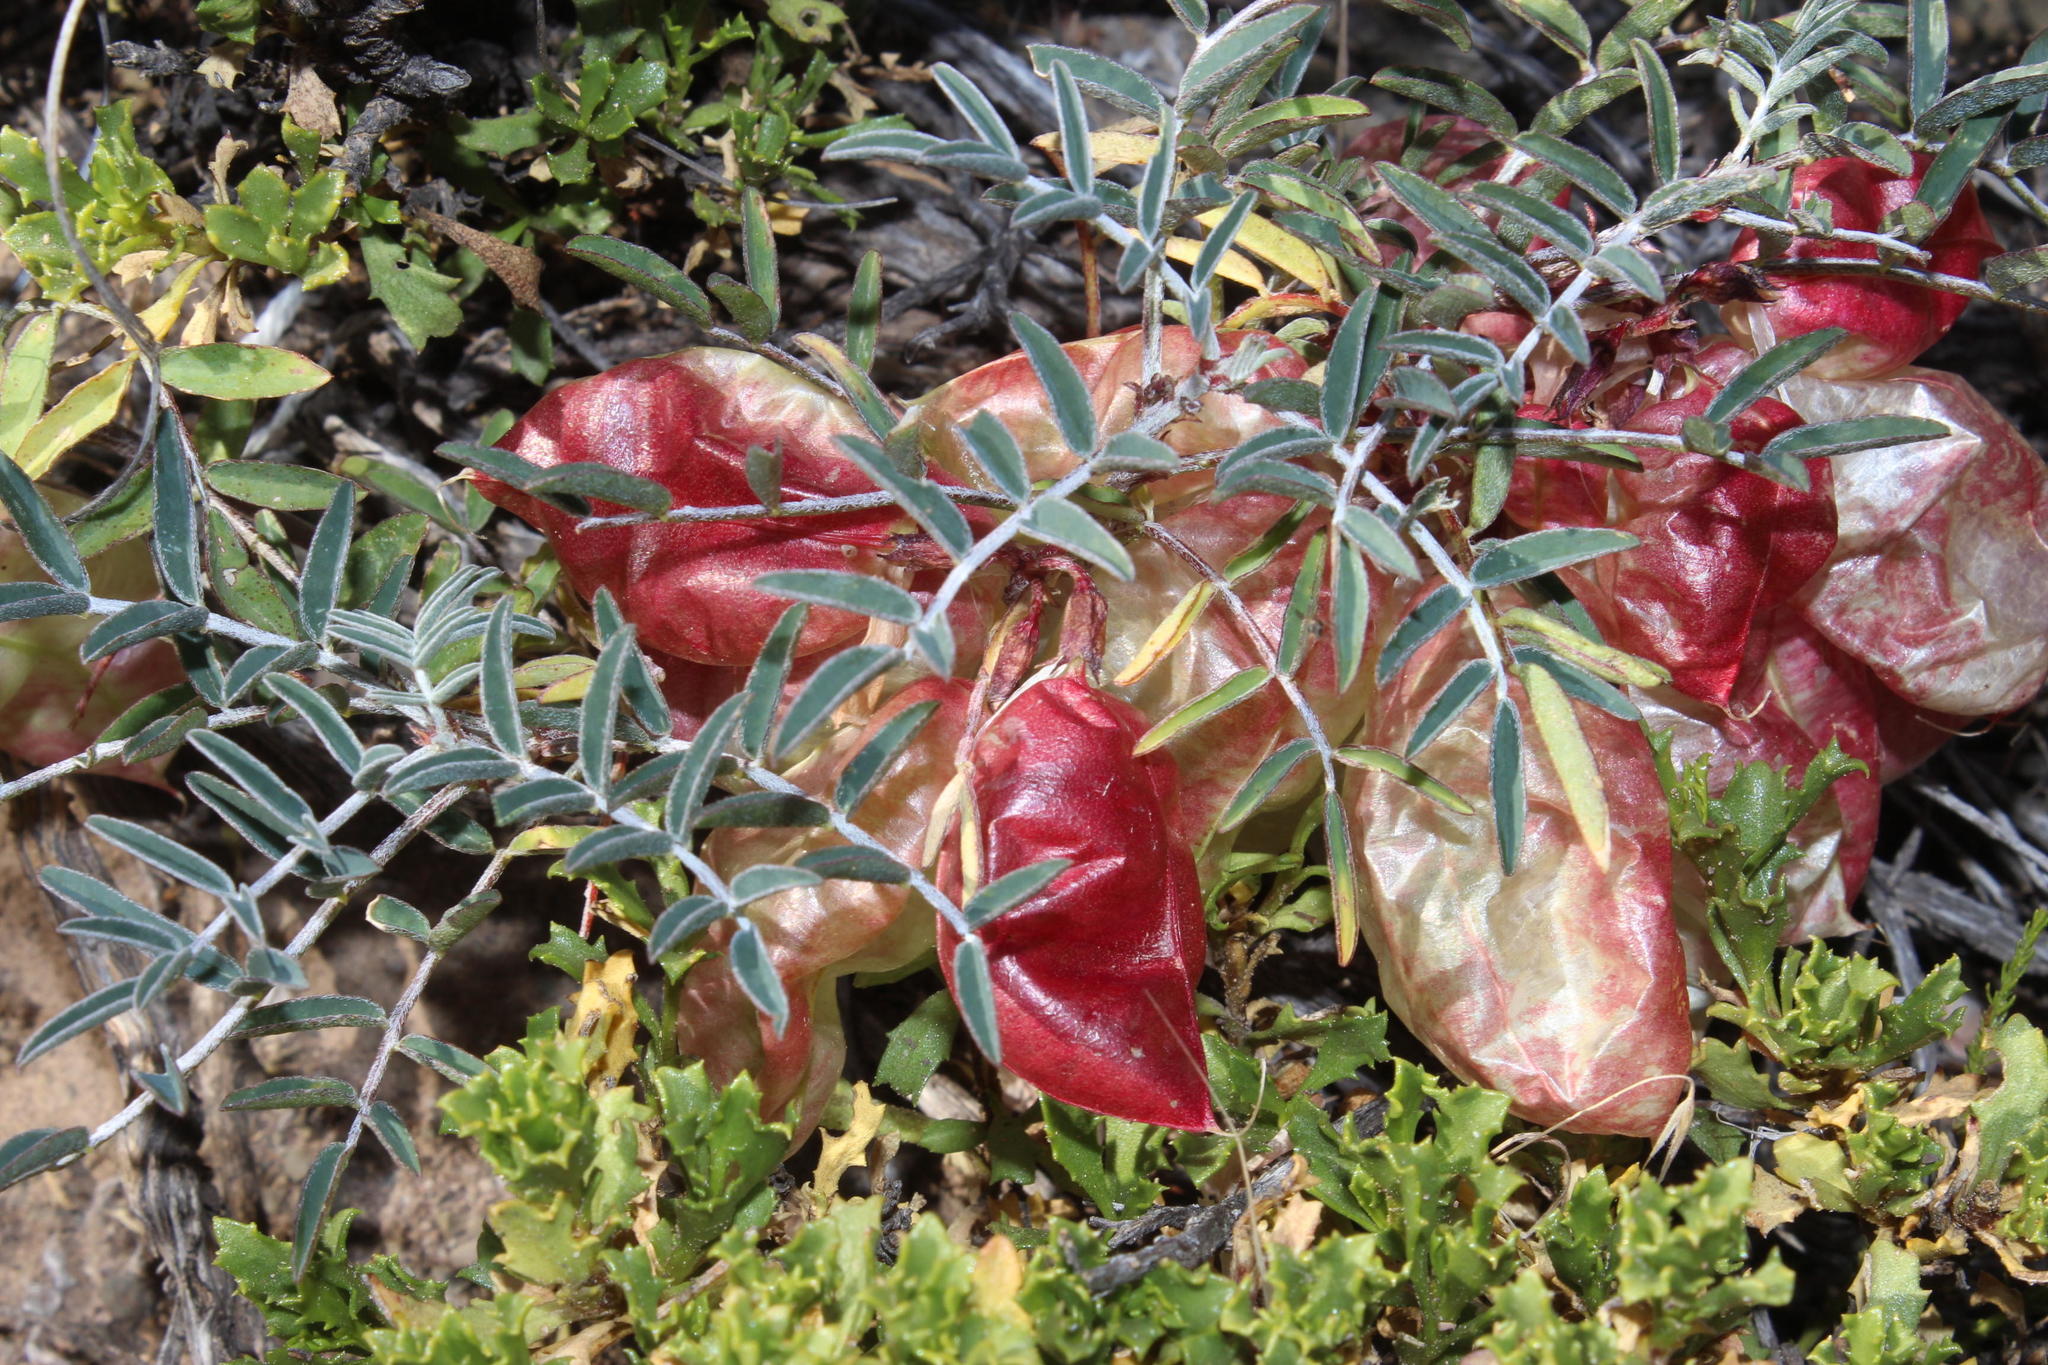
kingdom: Plantae
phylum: Tracheophyta
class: Magnoliopsida
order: Fabales
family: Fabaceae
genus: Lessertia
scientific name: Lessertia frutescens
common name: Balloon-pea
